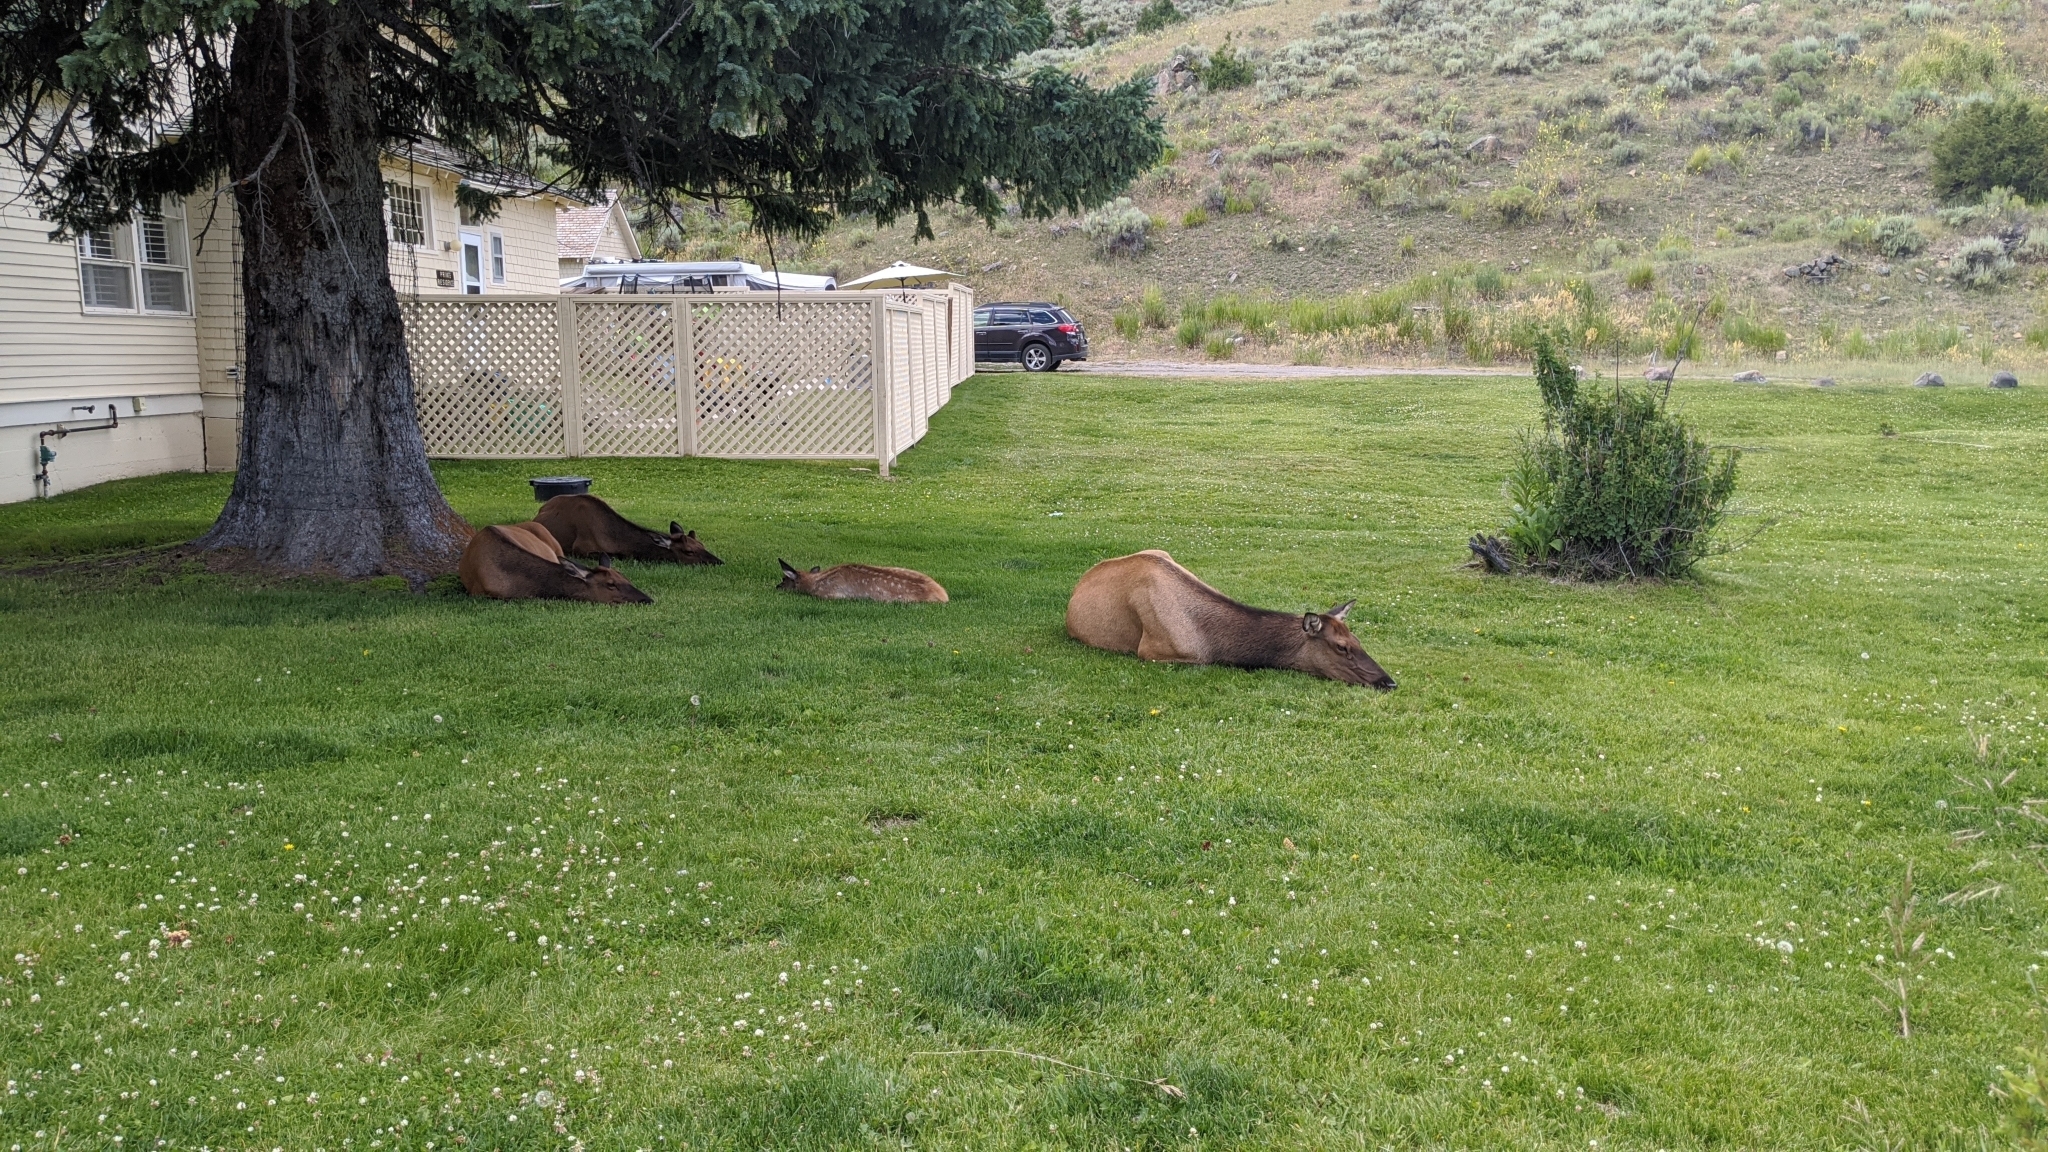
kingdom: Animalia
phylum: Chordata
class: Mammalia
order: Artiodactyla
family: Cervidae
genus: Cervus
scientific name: Cervus elaphus
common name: Red deer
